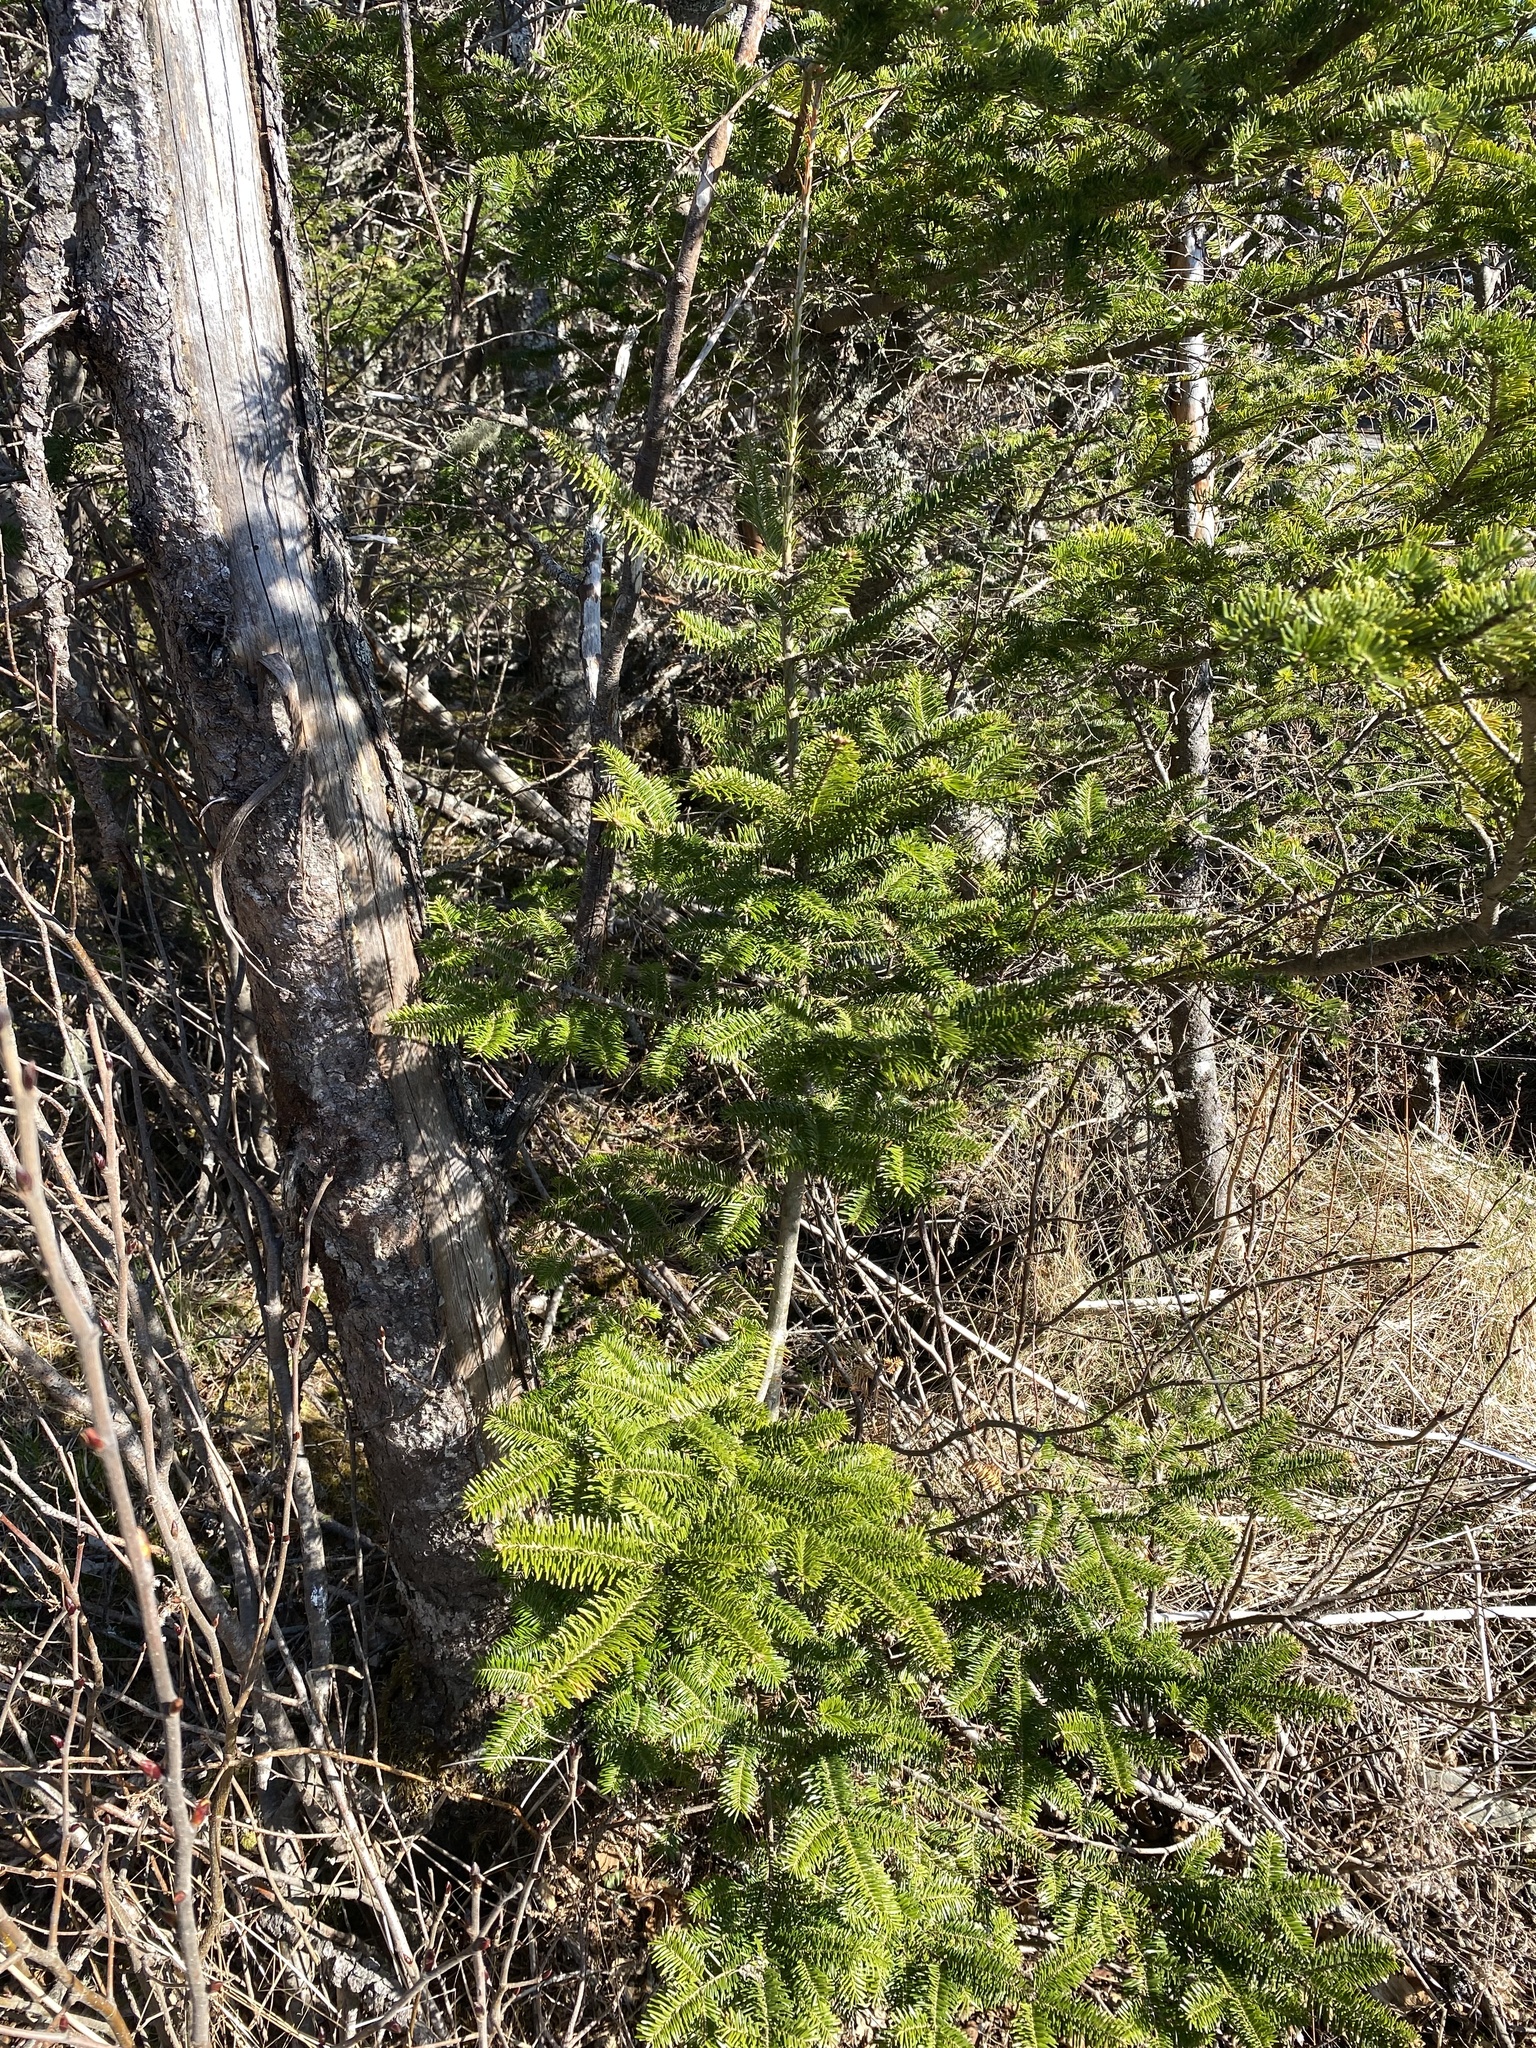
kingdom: Plantae
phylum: Tracheophyta
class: Pinopsida
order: Pinales
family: Pinaceae
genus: Abies
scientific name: Abies balsamea
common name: Balsam fir
